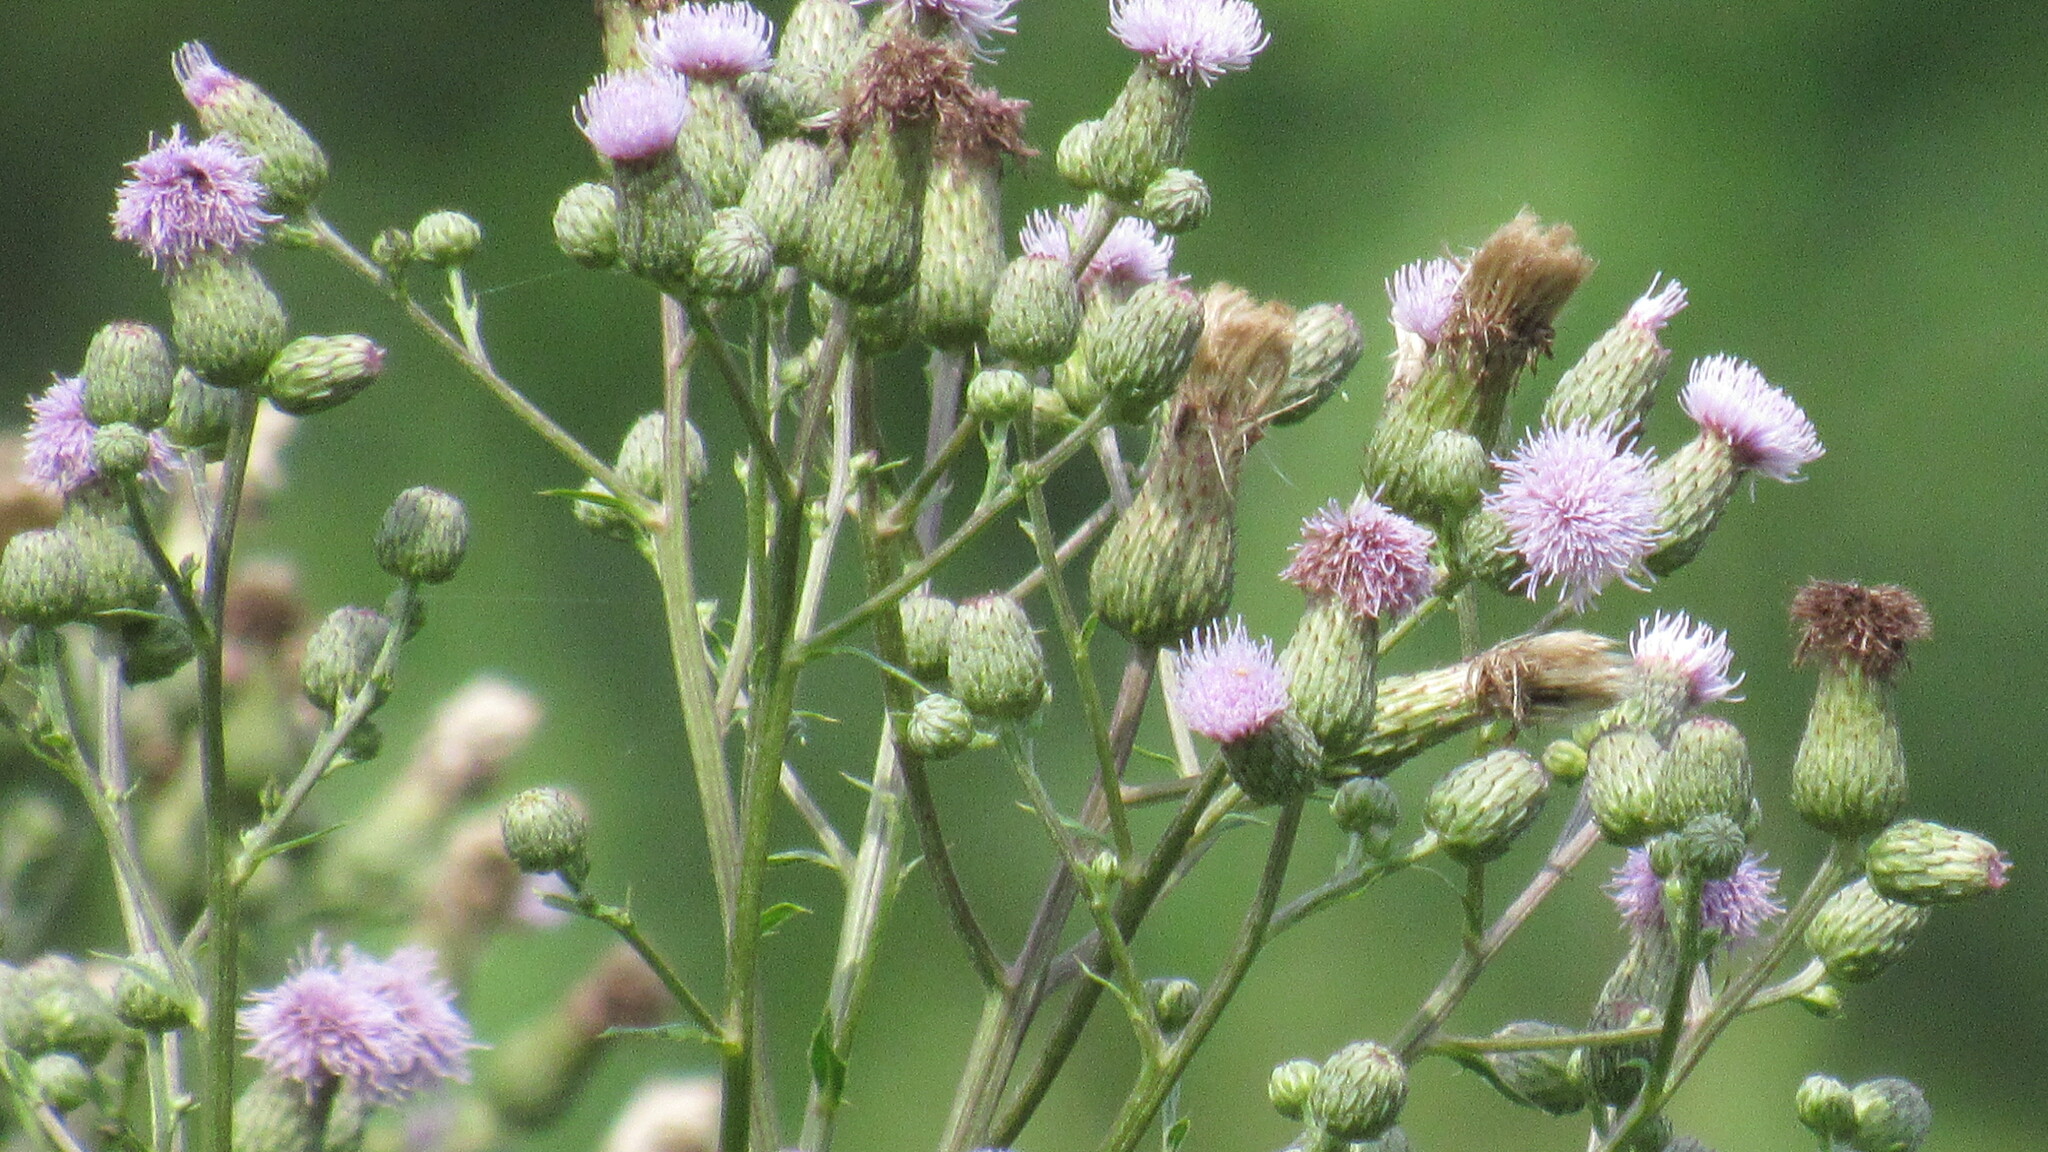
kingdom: Plantae
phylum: Tracheophyta
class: Magnoliopsida
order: Asterales
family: Asteraceae
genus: Cirsium
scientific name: Cirsium arvense
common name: Creeping thistle
